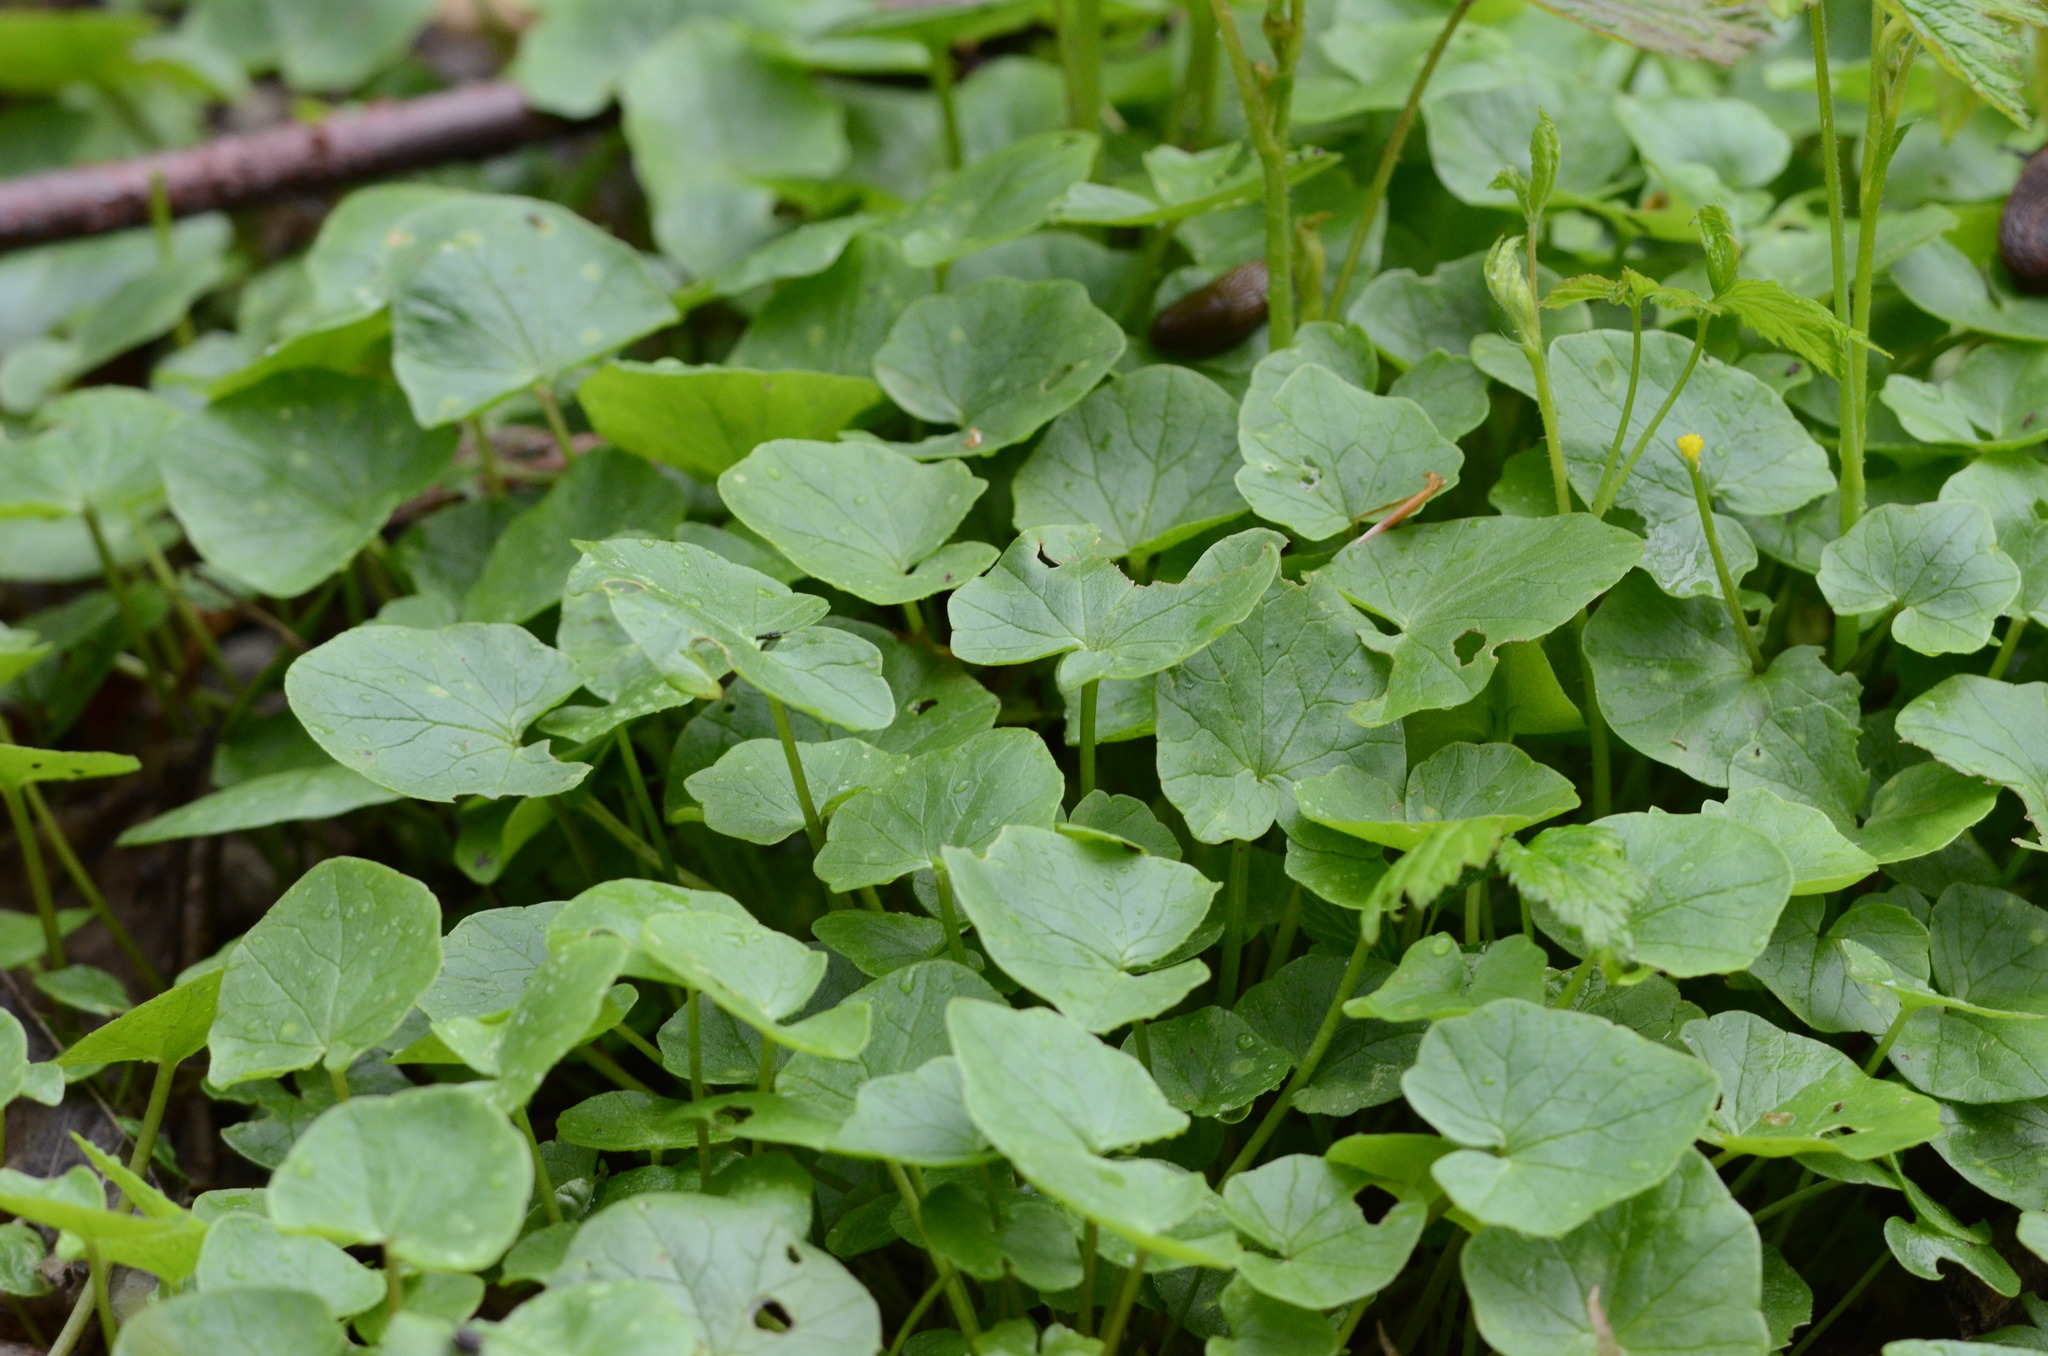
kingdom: Plantae
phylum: Tracheophyta
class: Magnoliopsida
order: Ranunculales
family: Ranunculaceae
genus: Ficaria
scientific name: Ficaria verna
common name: Lesser celandine
